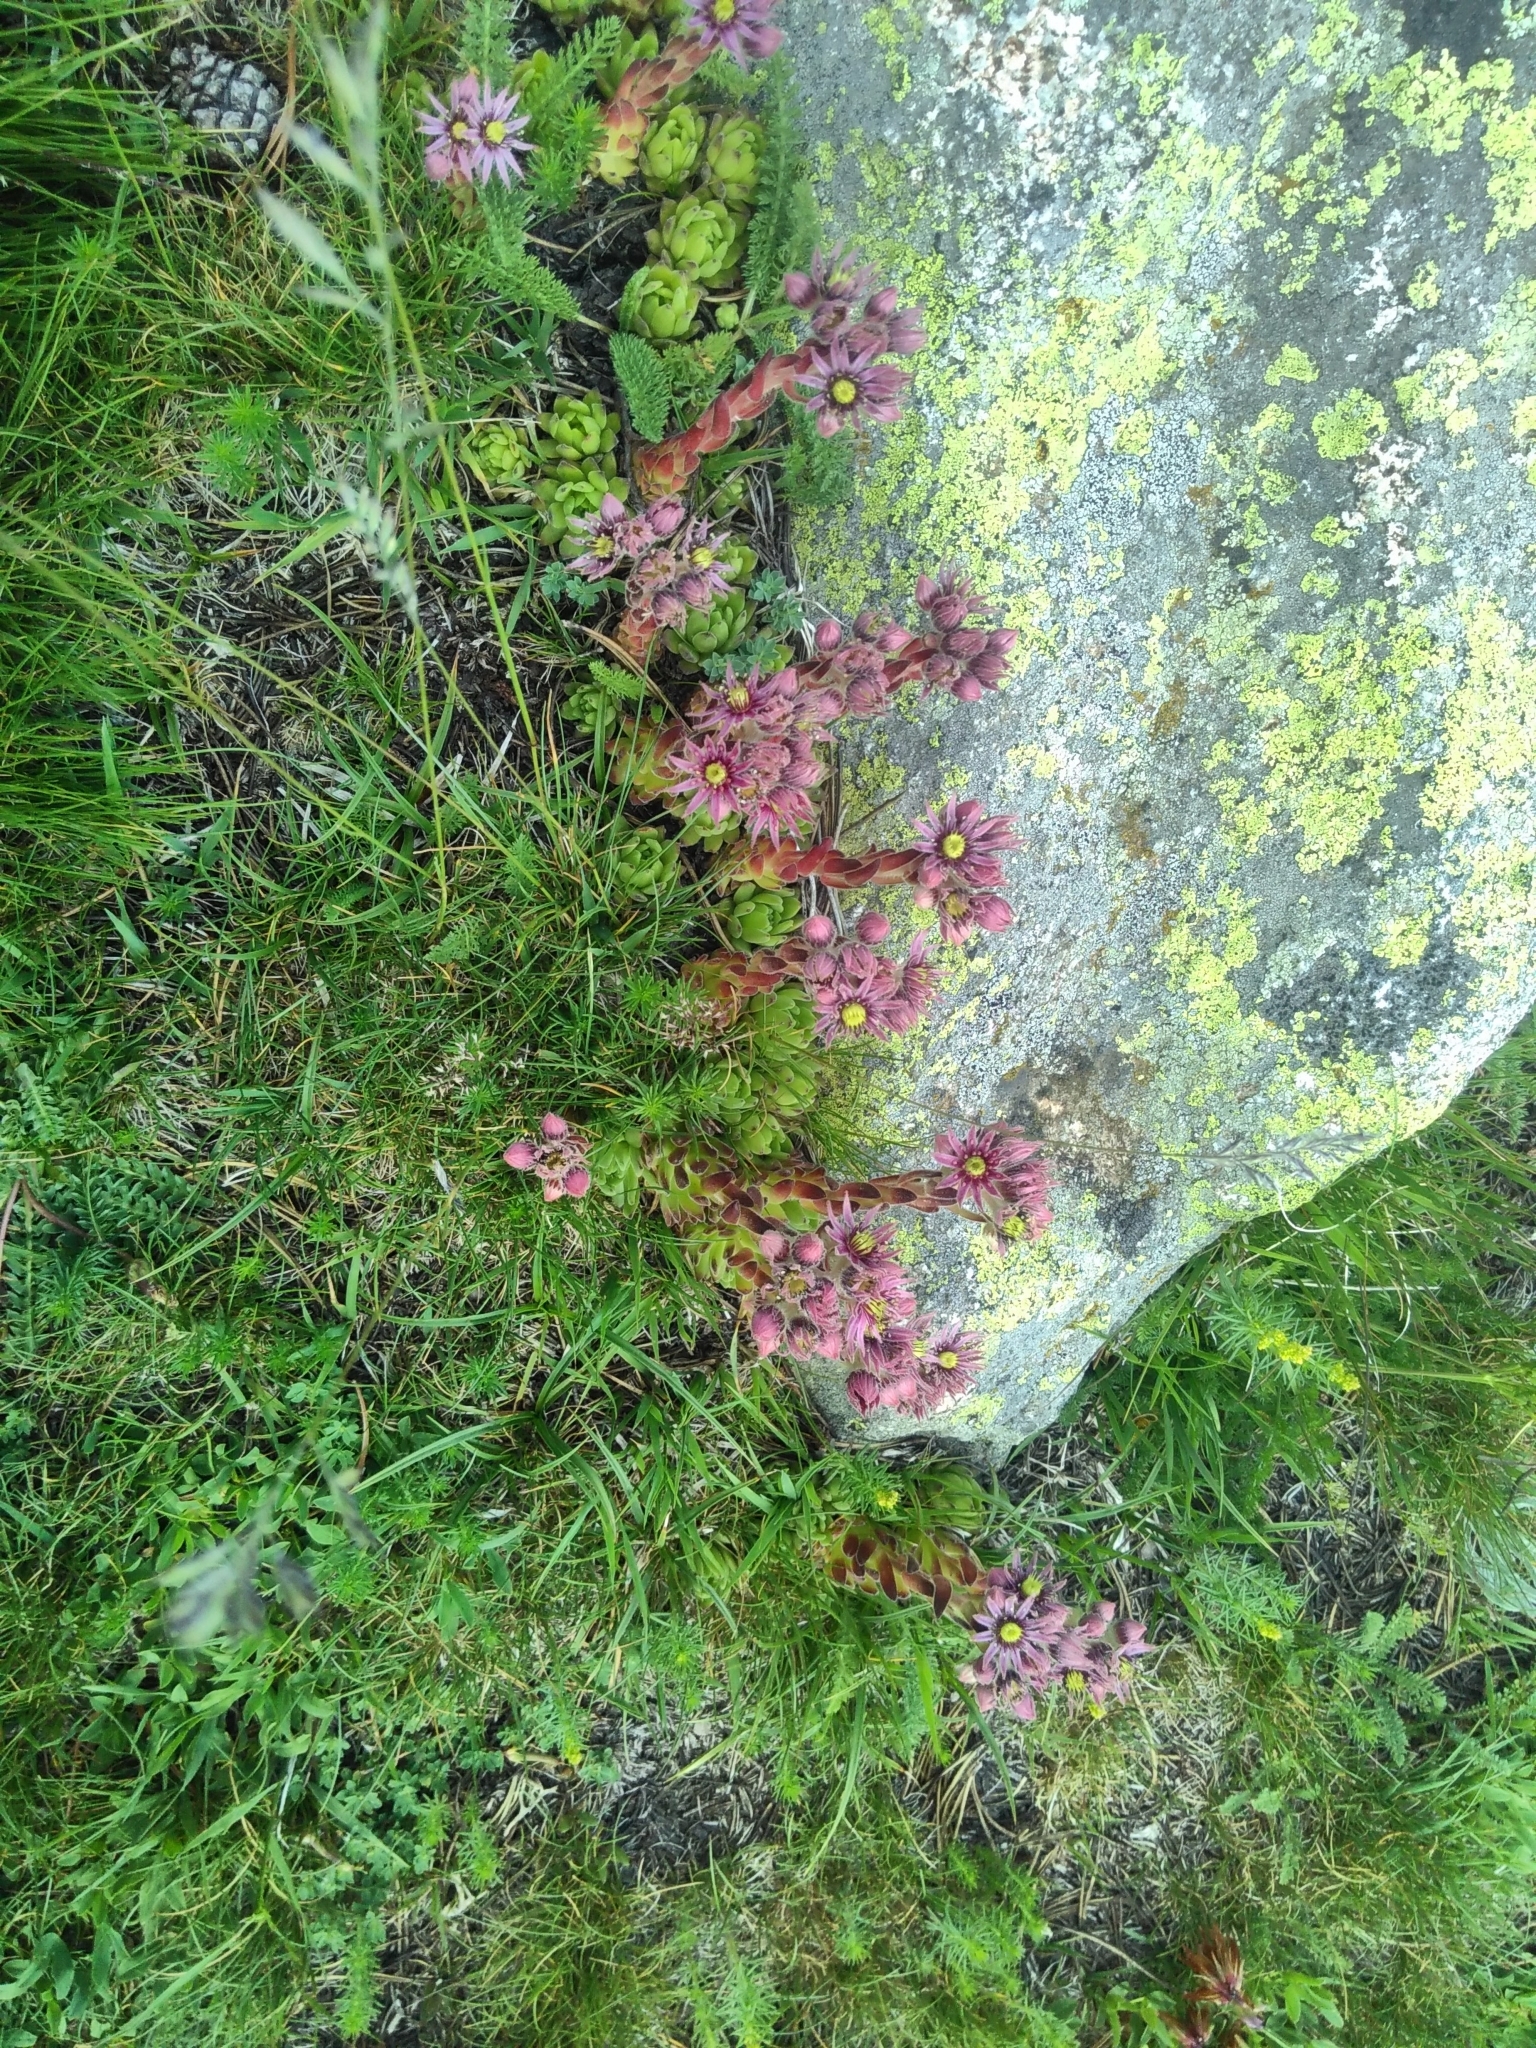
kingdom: Plantae
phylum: Tracheophyta
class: Magnoliopsida
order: Saxifragales
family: Crassulaceae
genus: Sempervivum
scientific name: Sempervivum montanum
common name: Mountain house-leek
